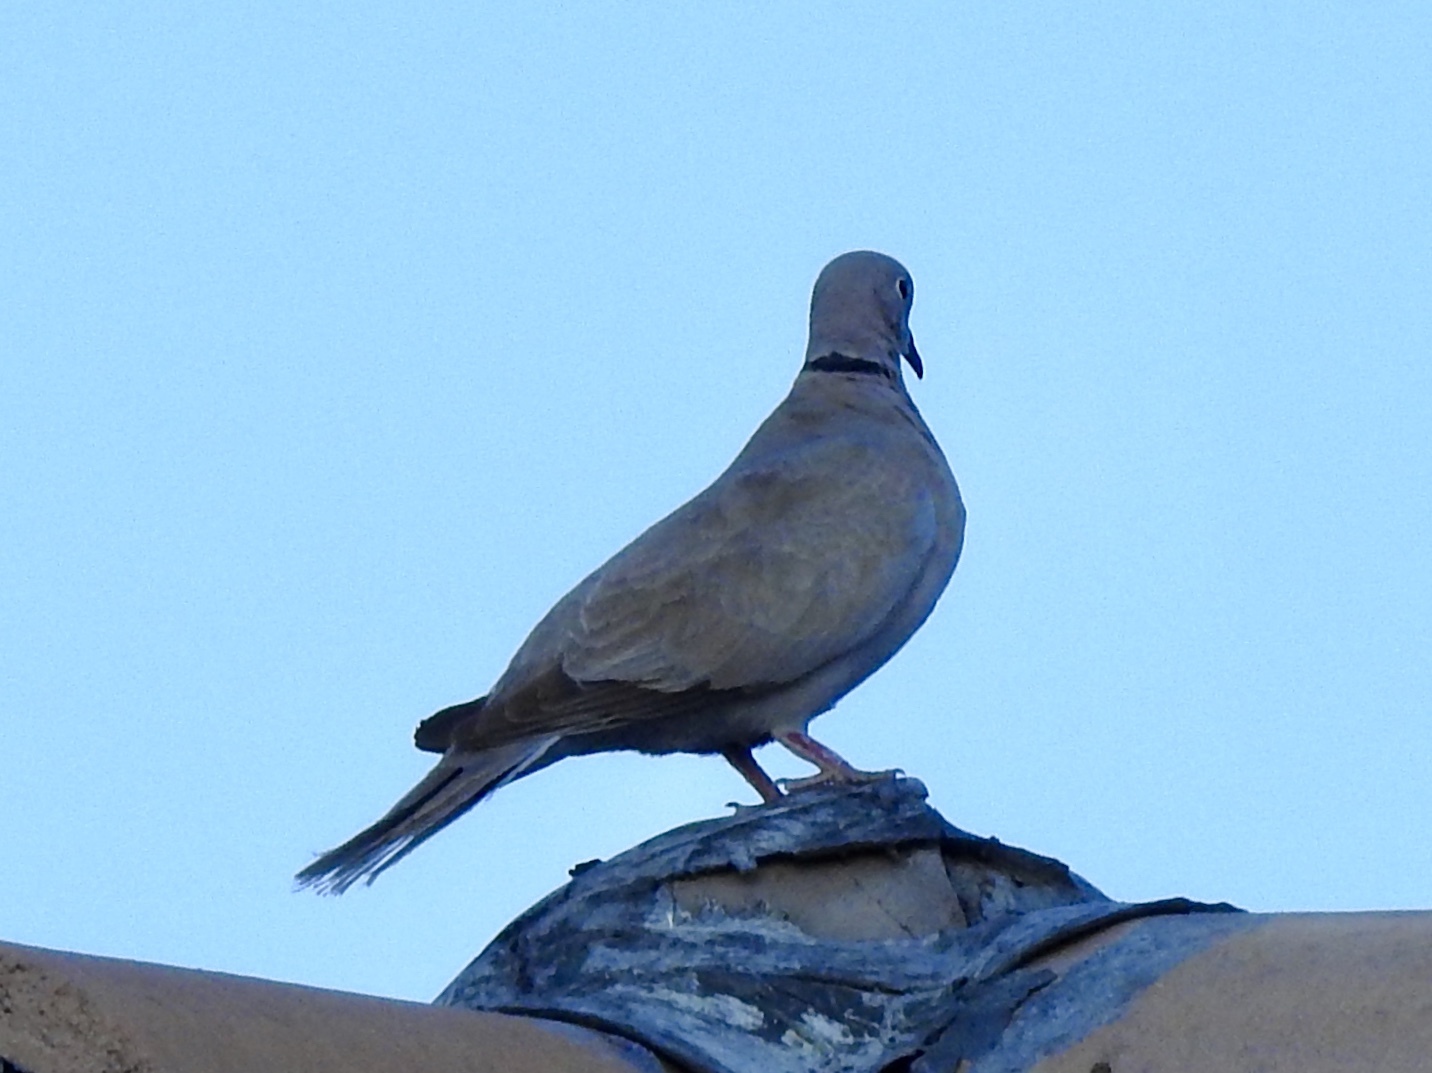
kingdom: Animalia
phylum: Chordata
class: Aves
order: Columbiformes
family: Columbidae
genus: Streptopelia
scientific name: Streptopelia decaocto
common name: Eurasian collared dove
